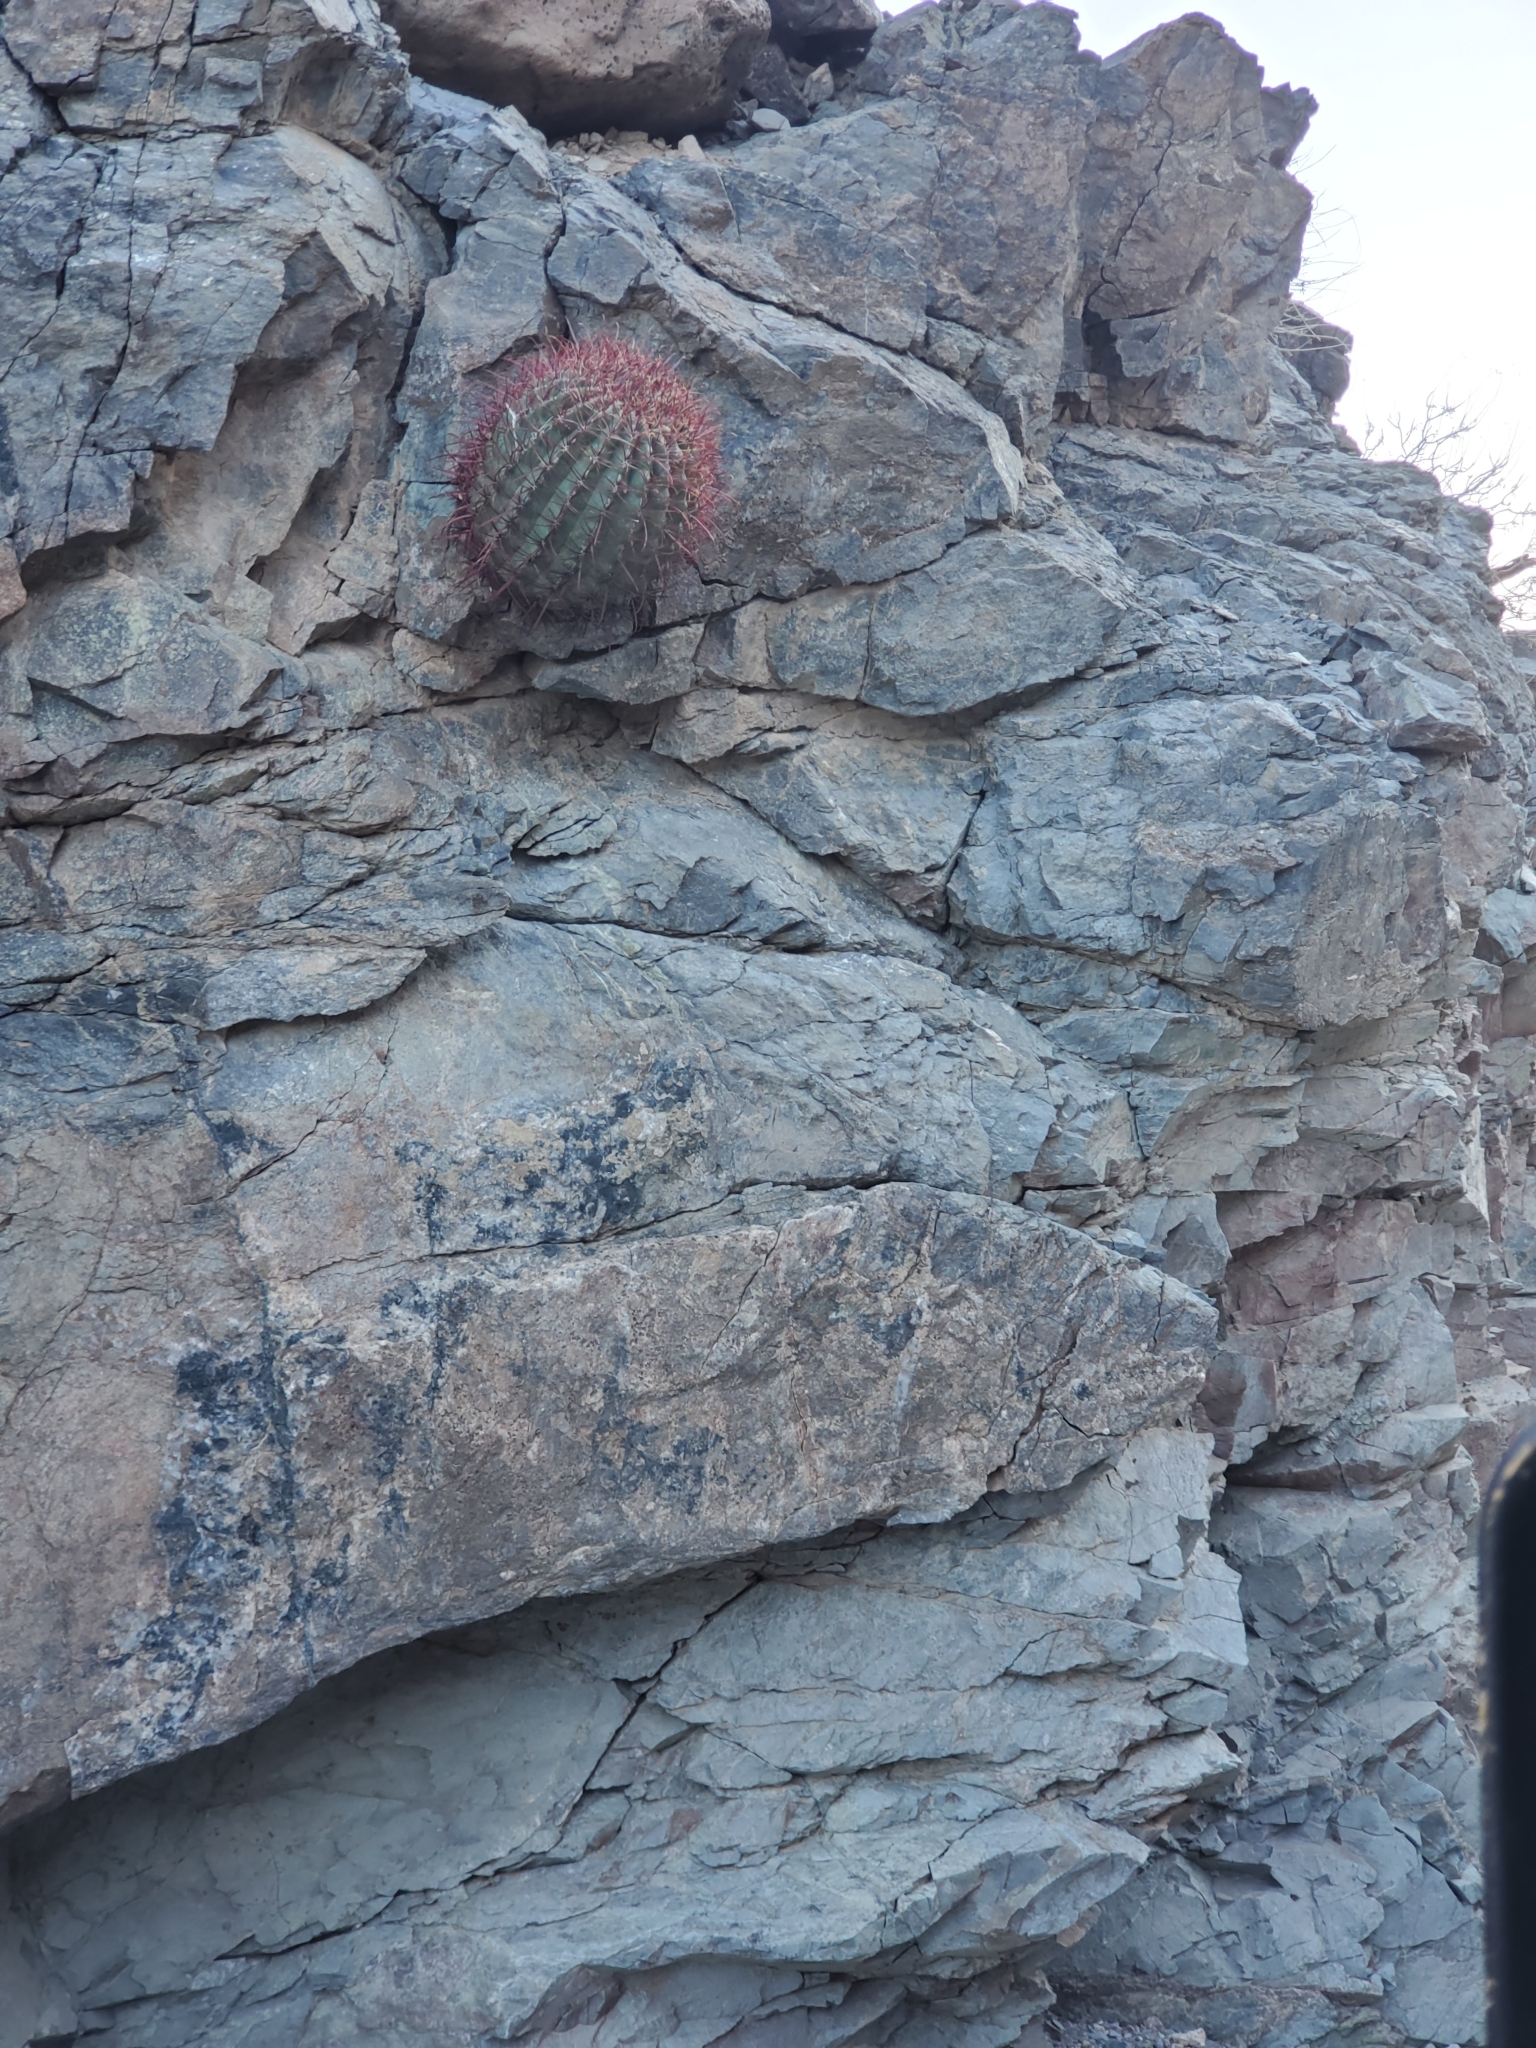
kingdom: Plantae
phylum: Tracheophyta
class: Magnoliopsida
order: Caryophyllales
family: Cactaceae
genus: Ferocactus
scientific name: Ferocactus cylindraceus
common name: California barrel cactus
